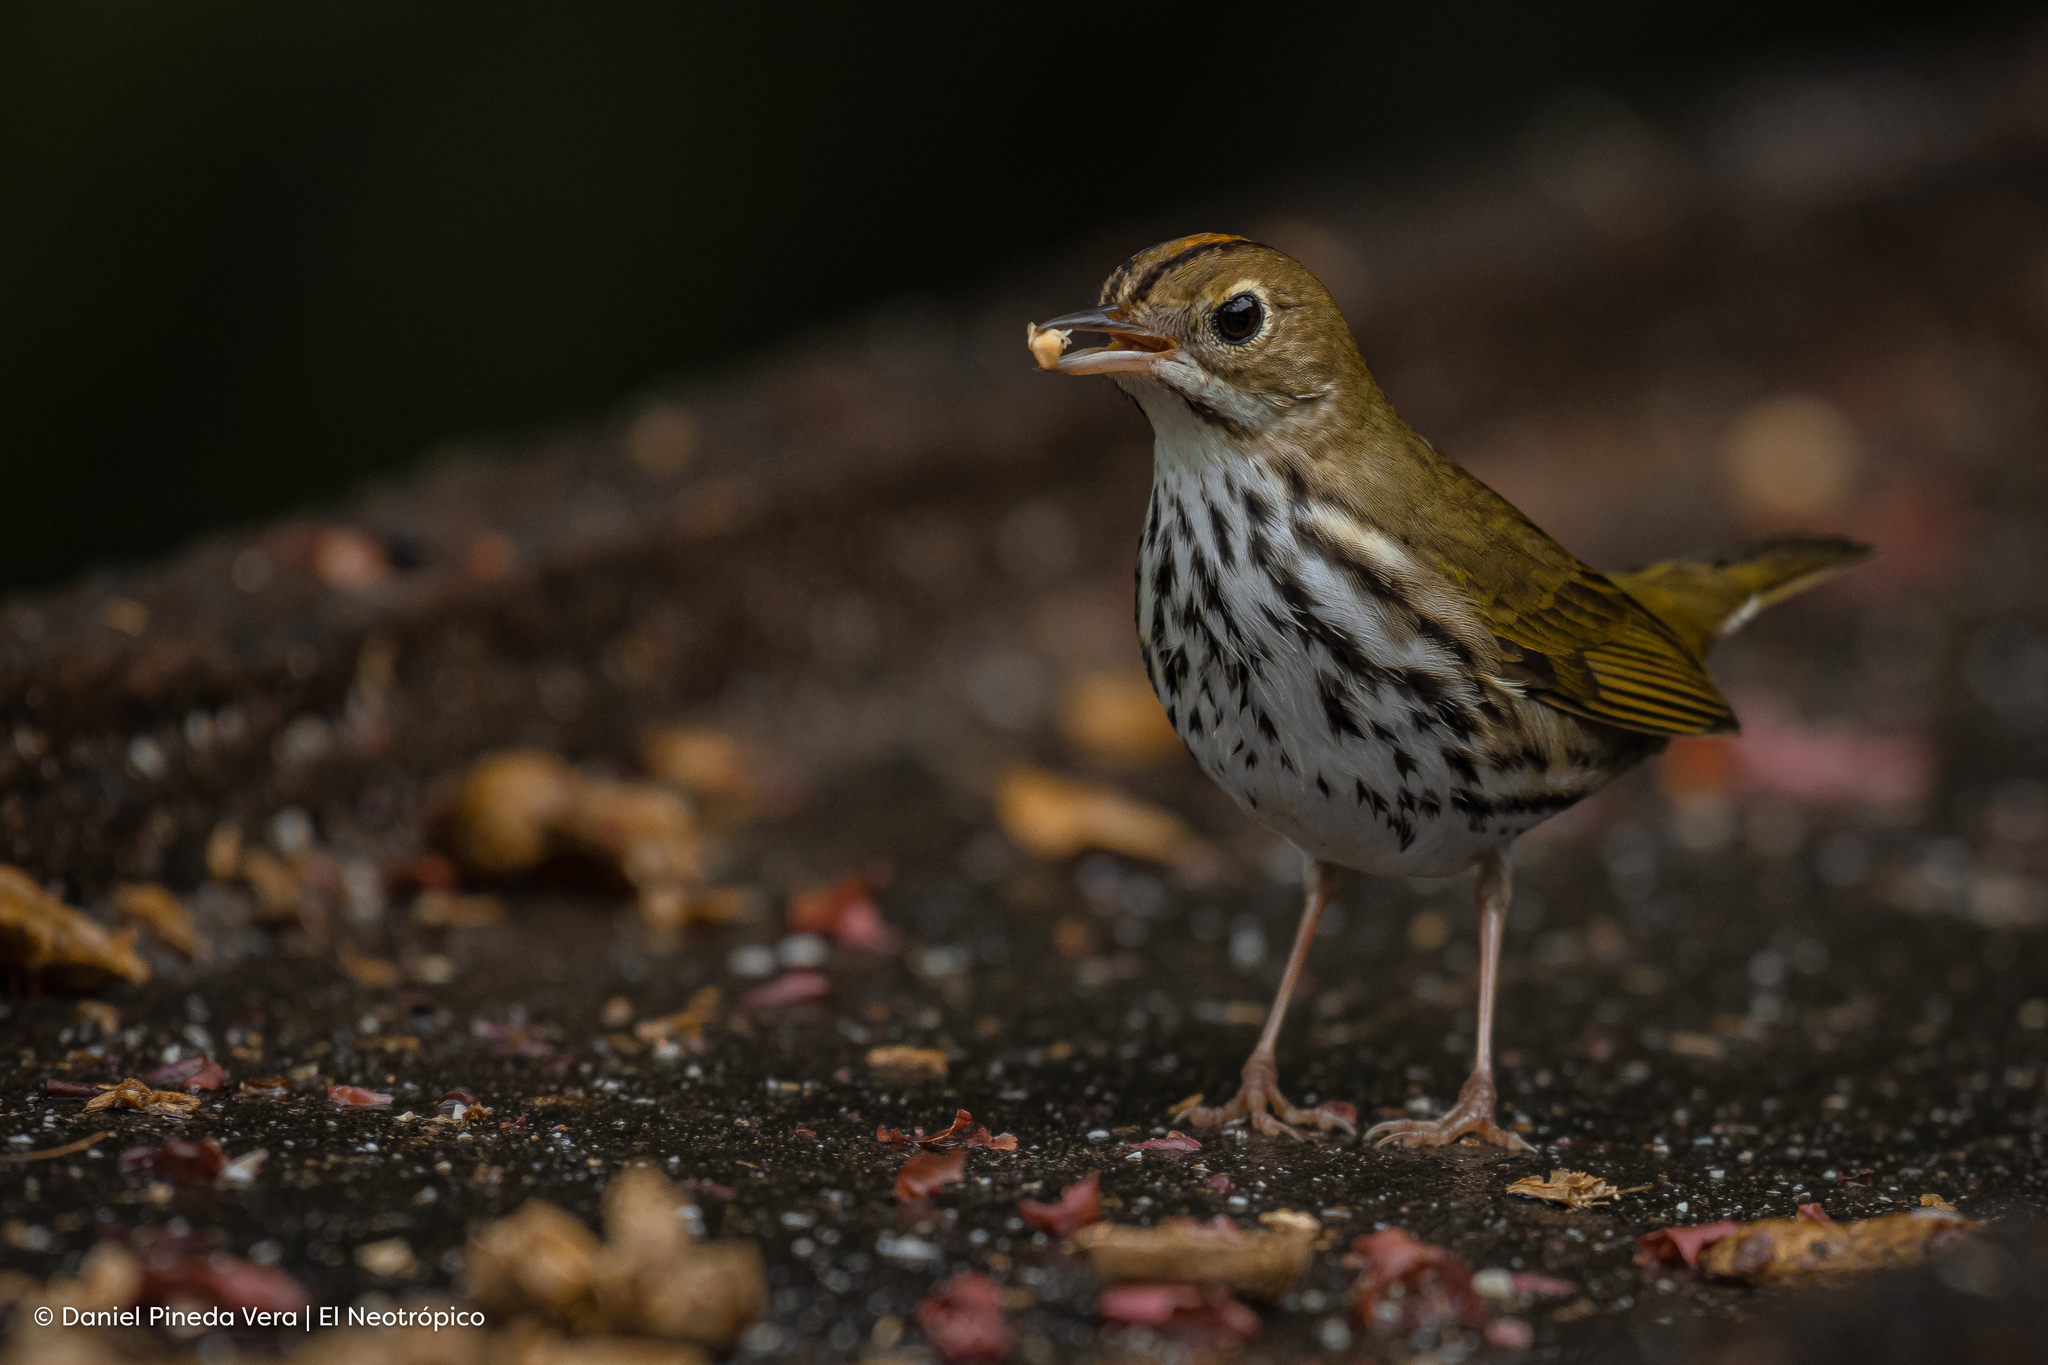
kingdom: Animalia
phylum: Chordata
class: Aves
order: Passeriformes
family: Parulidae
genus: Seiurus
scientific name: Seiurus aurocapilla
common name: Ovenbird
